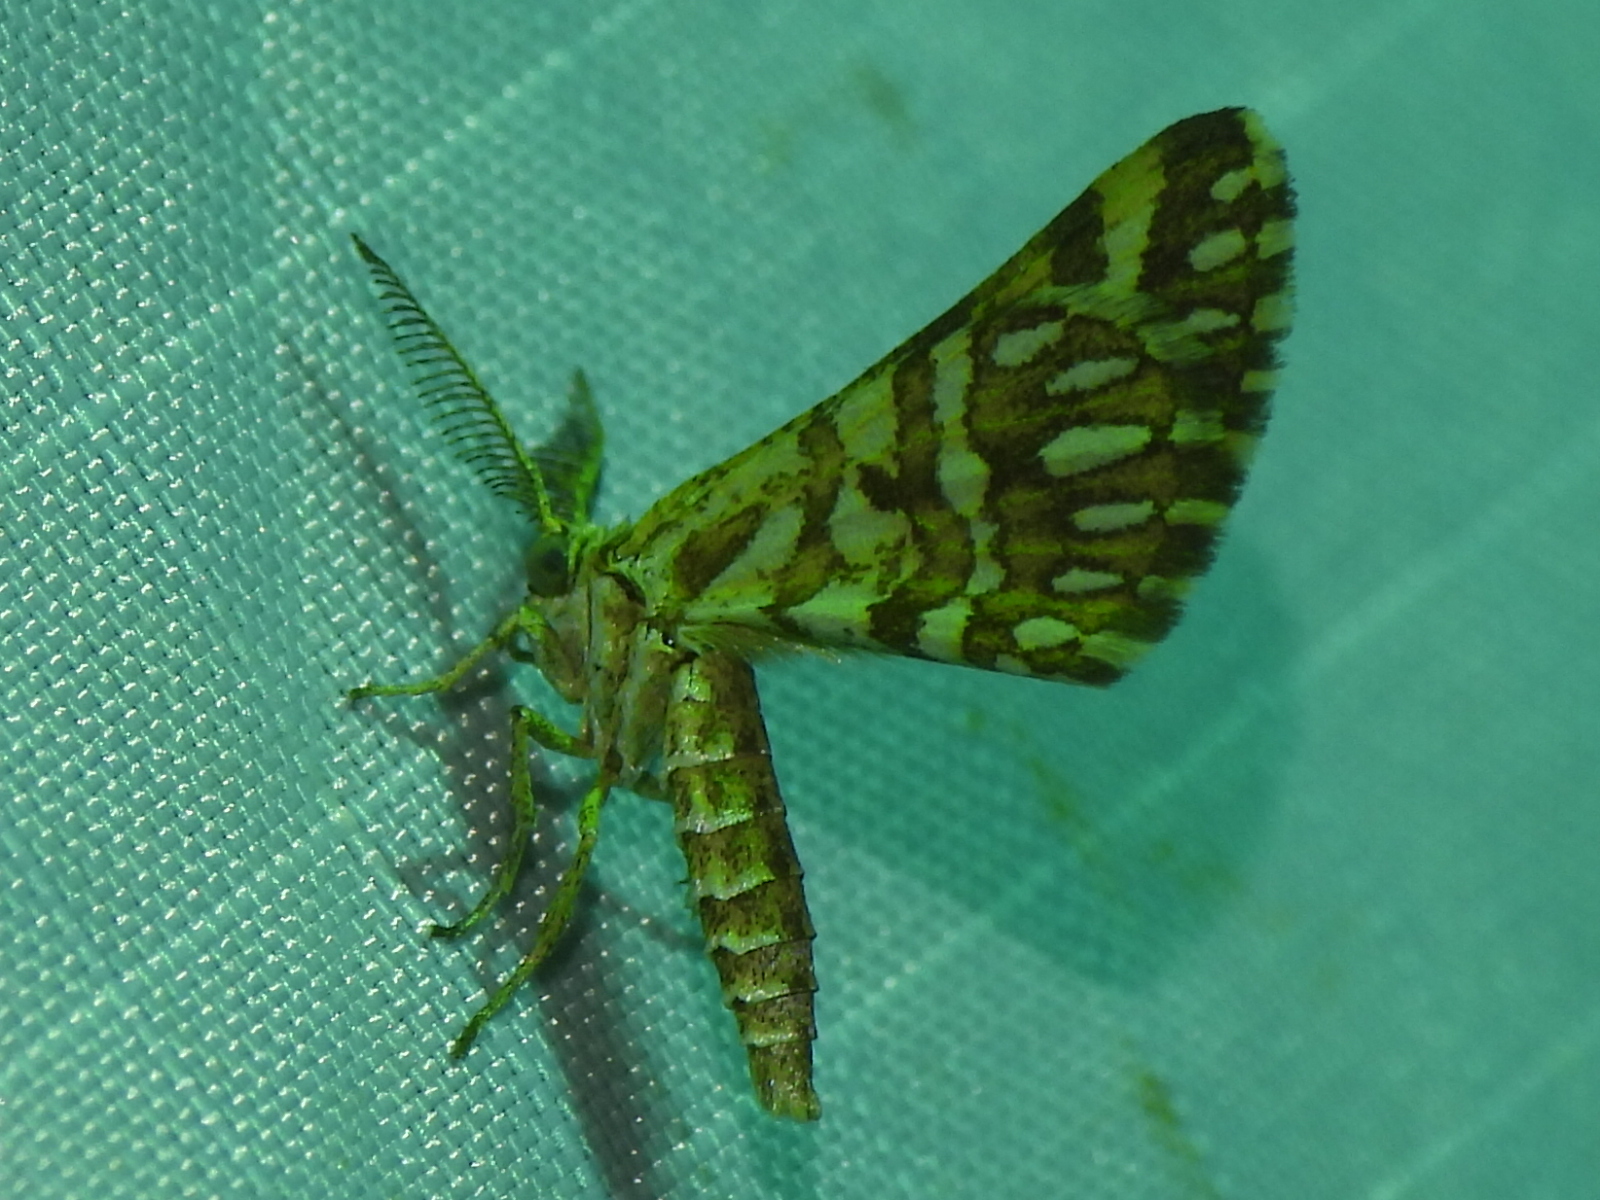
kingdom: Animalia
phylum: Arthropoda
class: Insecta
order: Lepidoptera
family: Geometridae
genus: Narraga
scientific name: Narraga fimetaria
